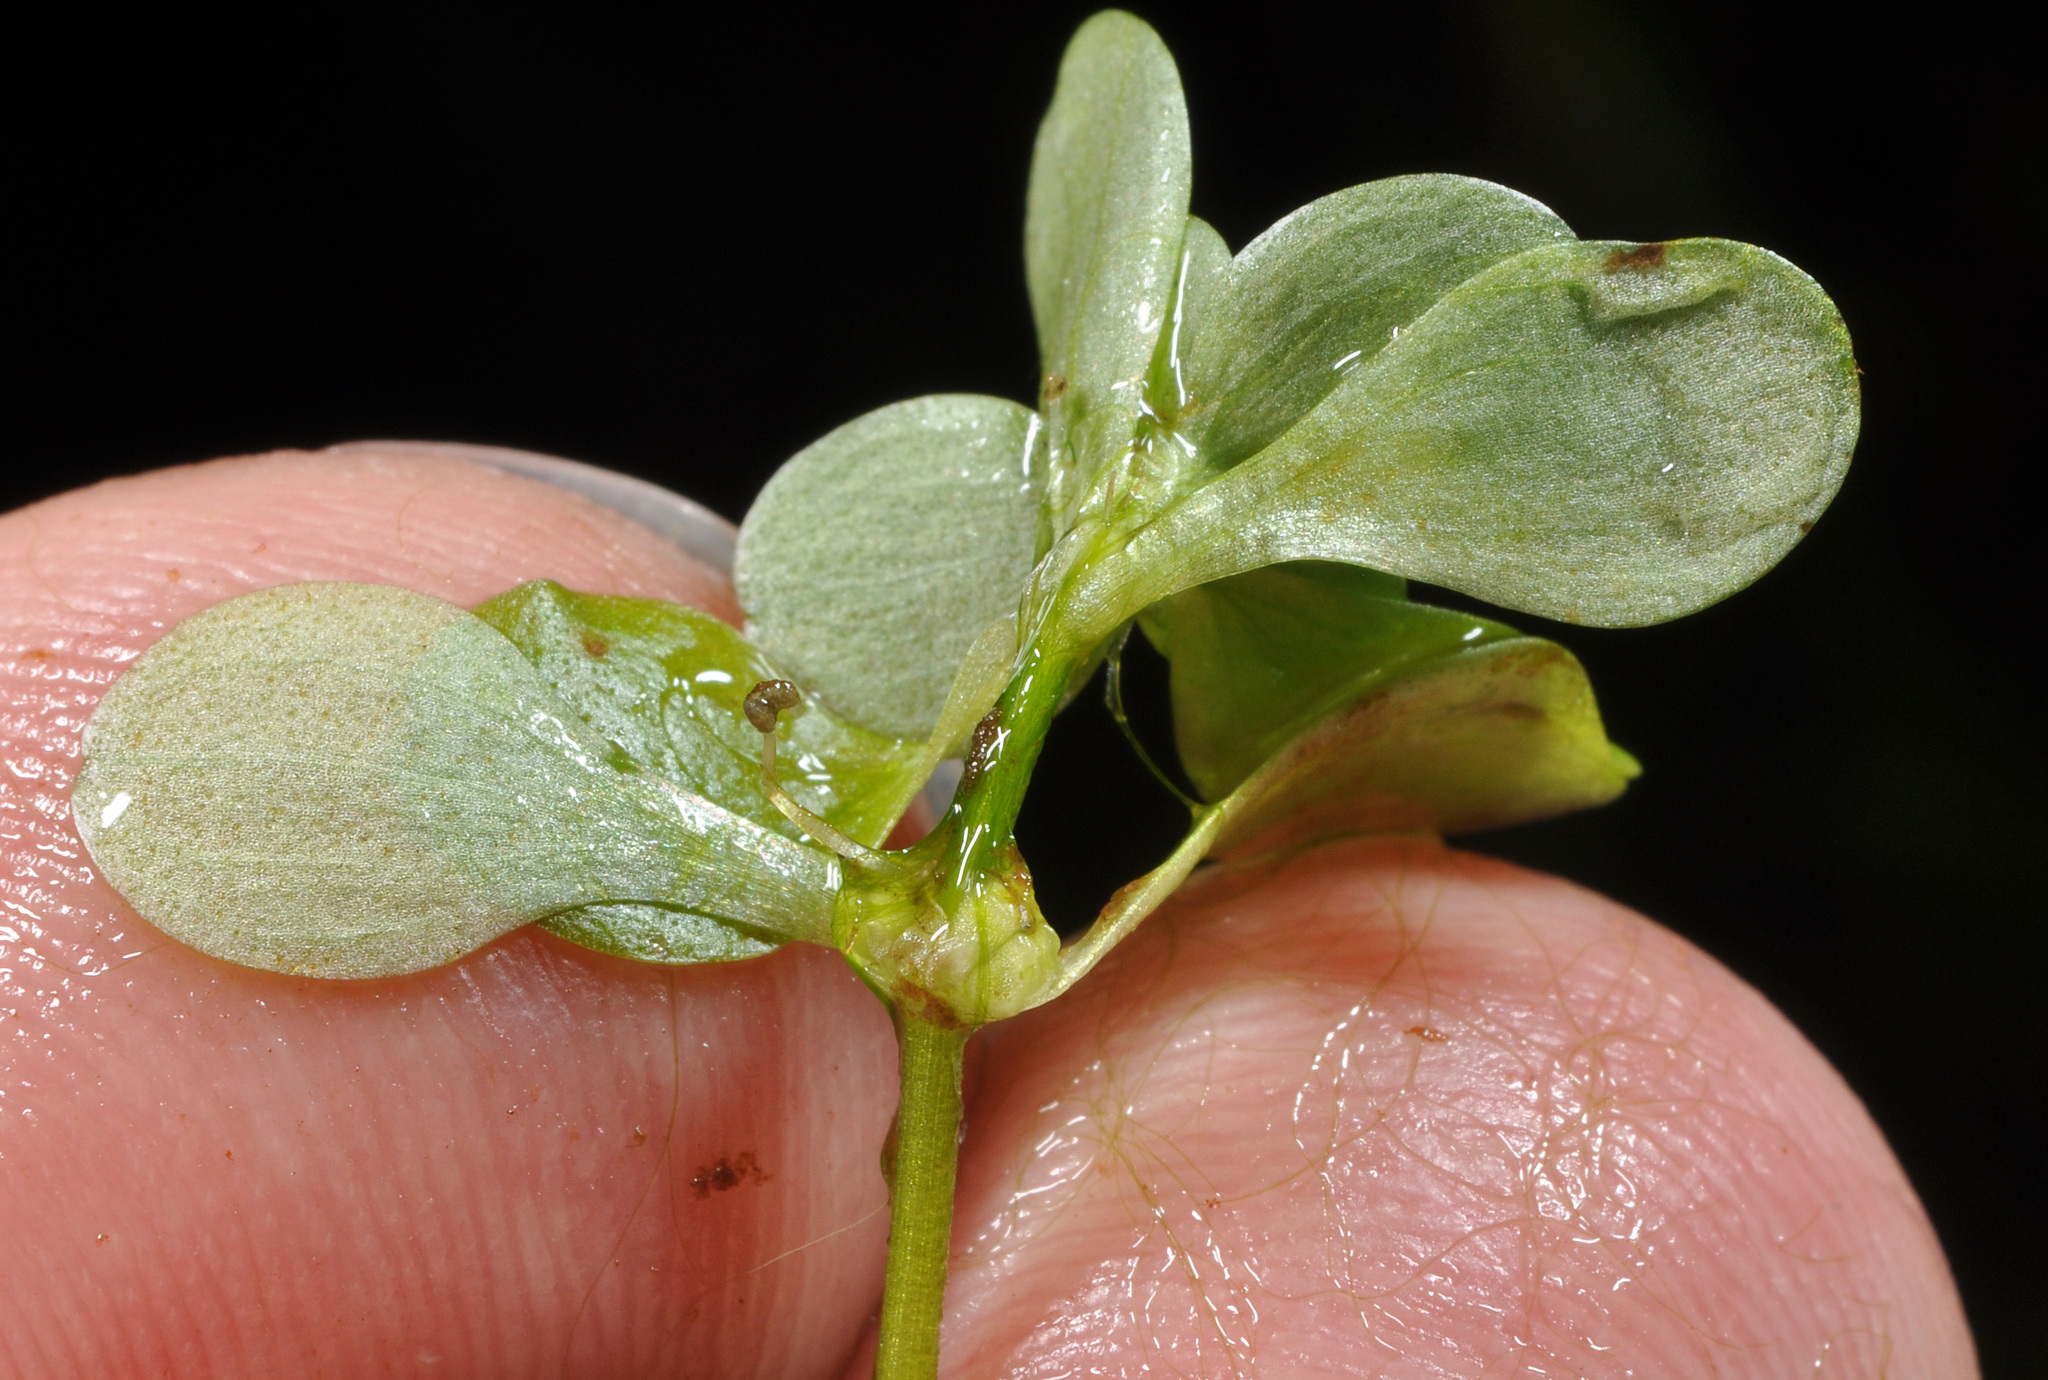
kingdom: Plantae
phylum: Tracheophyta
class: Magnoliopsida
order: Lamiales
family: Plantaginaceae
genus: Callitriche
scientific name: Callitriche stagnalis
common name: Common water-starwort
